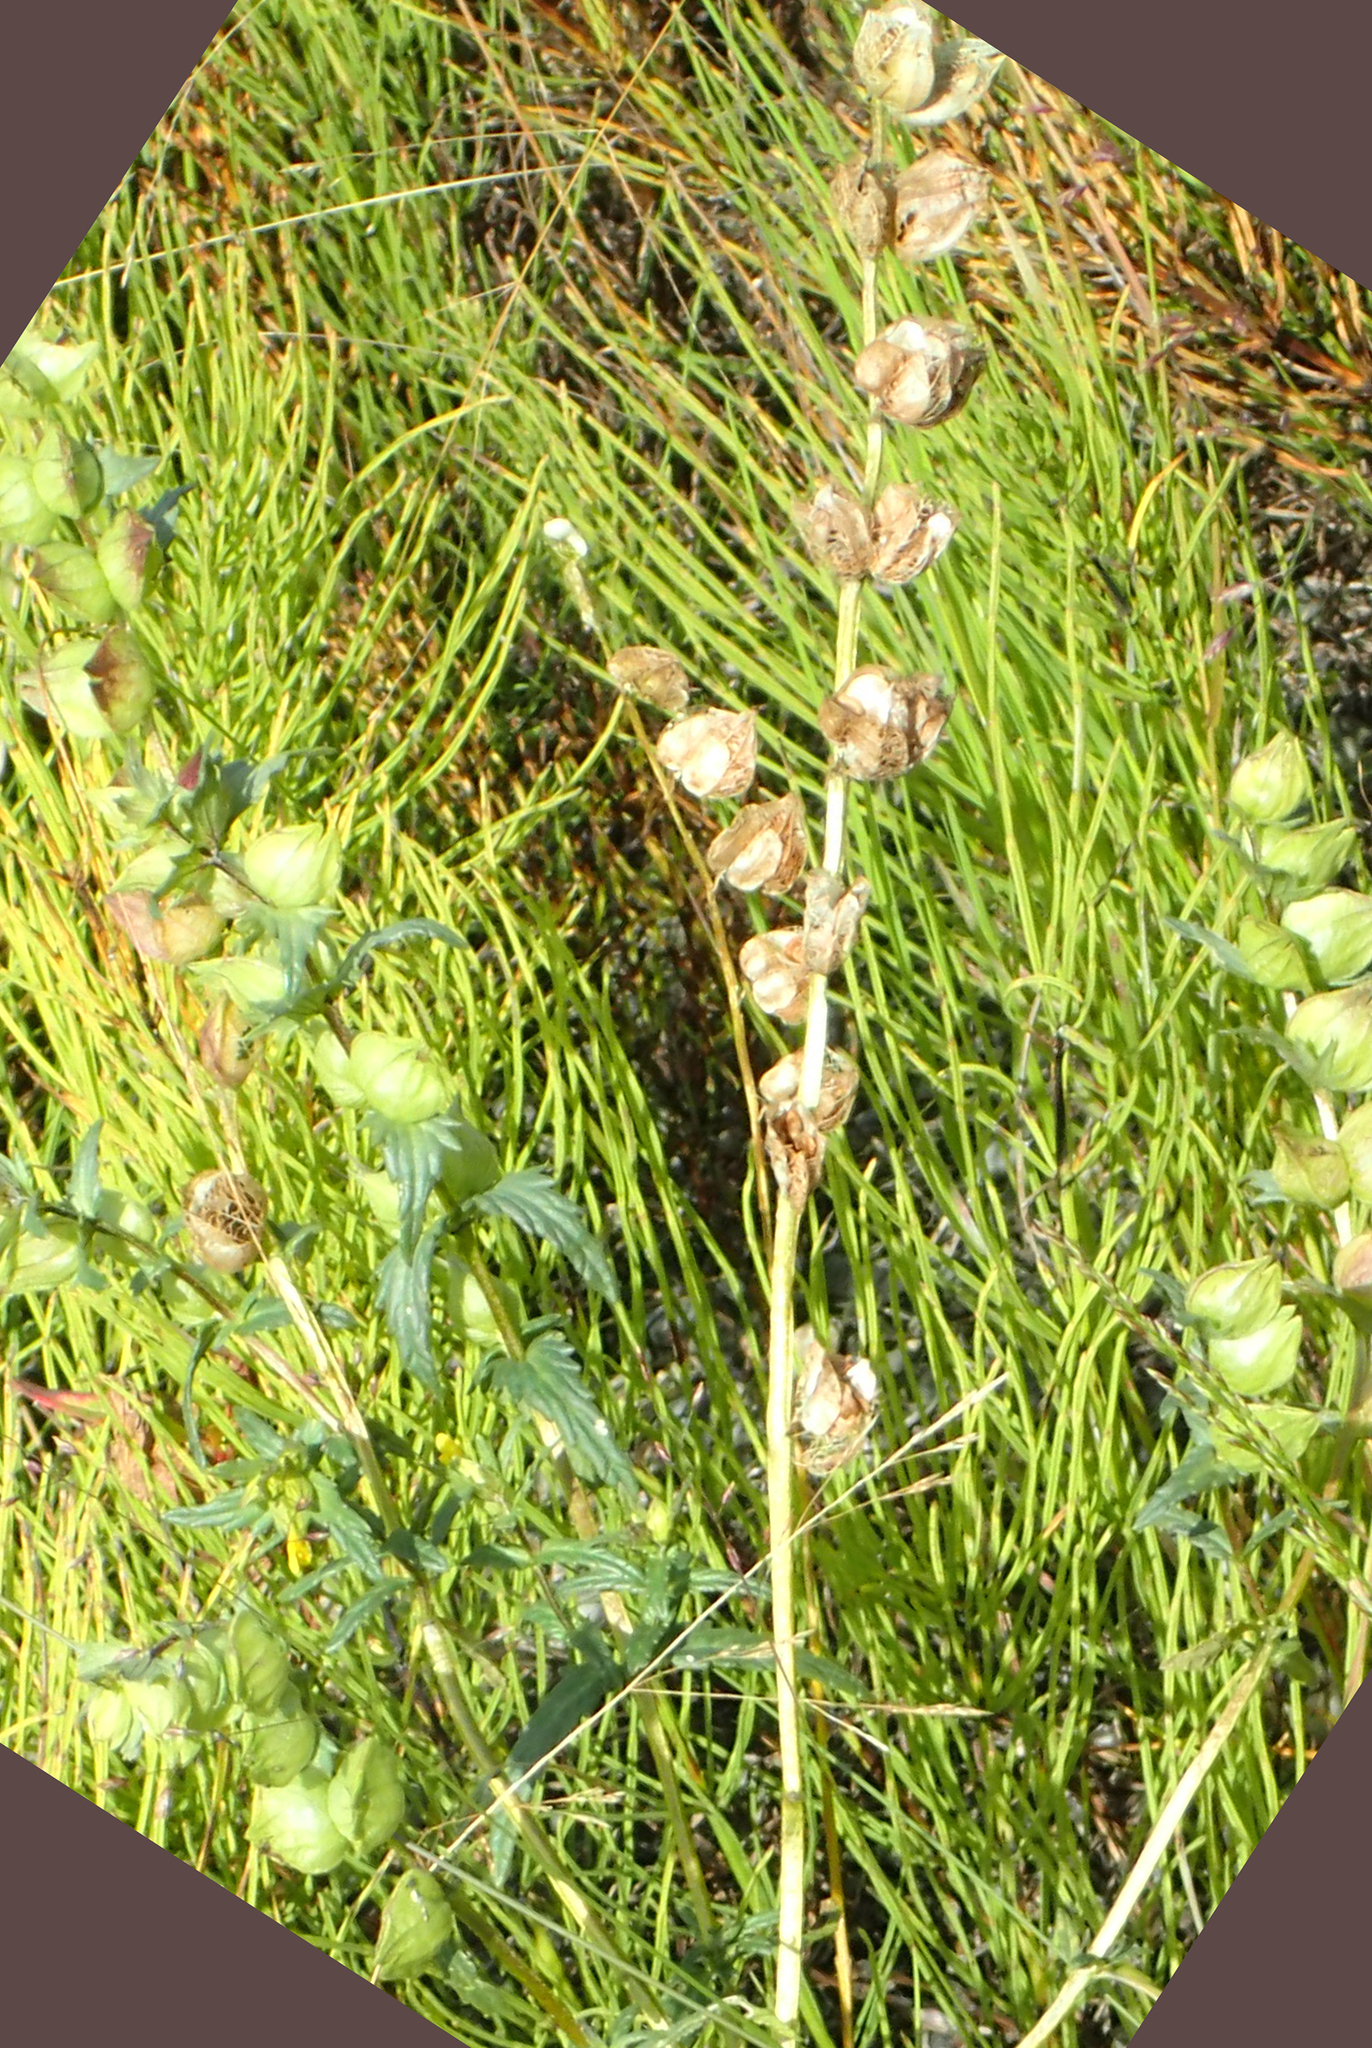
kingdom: Plantae
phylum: Tracheophyta
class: Magnoliopsida
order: Lamiales
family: Orobanchaceae
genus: Rhinanthus
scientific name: Rhinanthus minor
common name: Yellow-rattle
